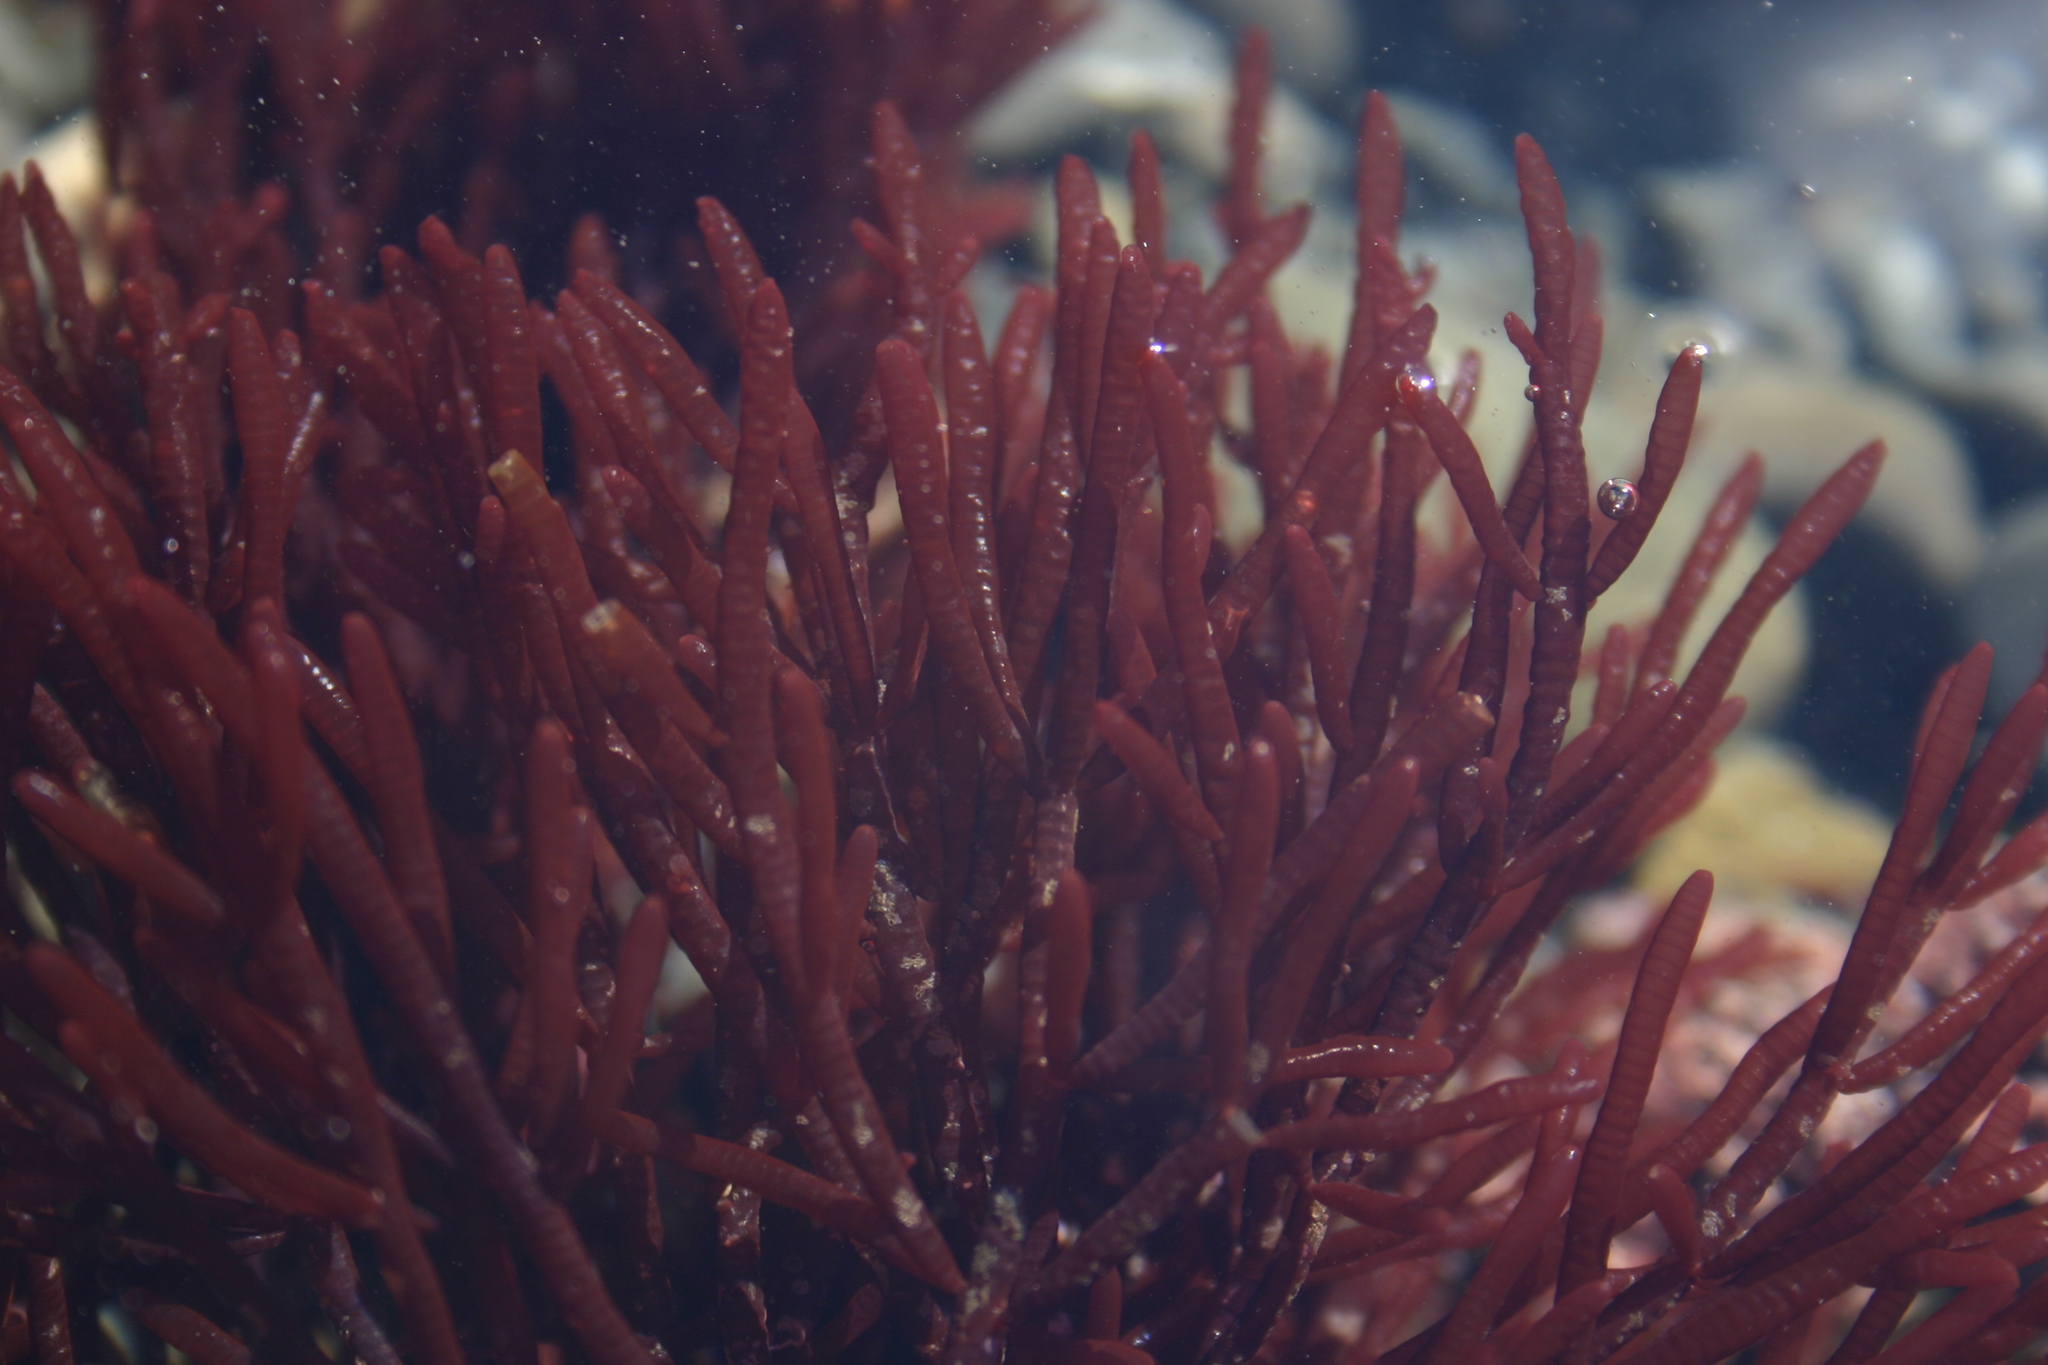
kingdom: Plantae
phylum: Rhodophyta
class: Florideophyceae
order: Rhodymeniales
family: Champiaceae
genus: Champia
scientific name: Champia chathamensis
